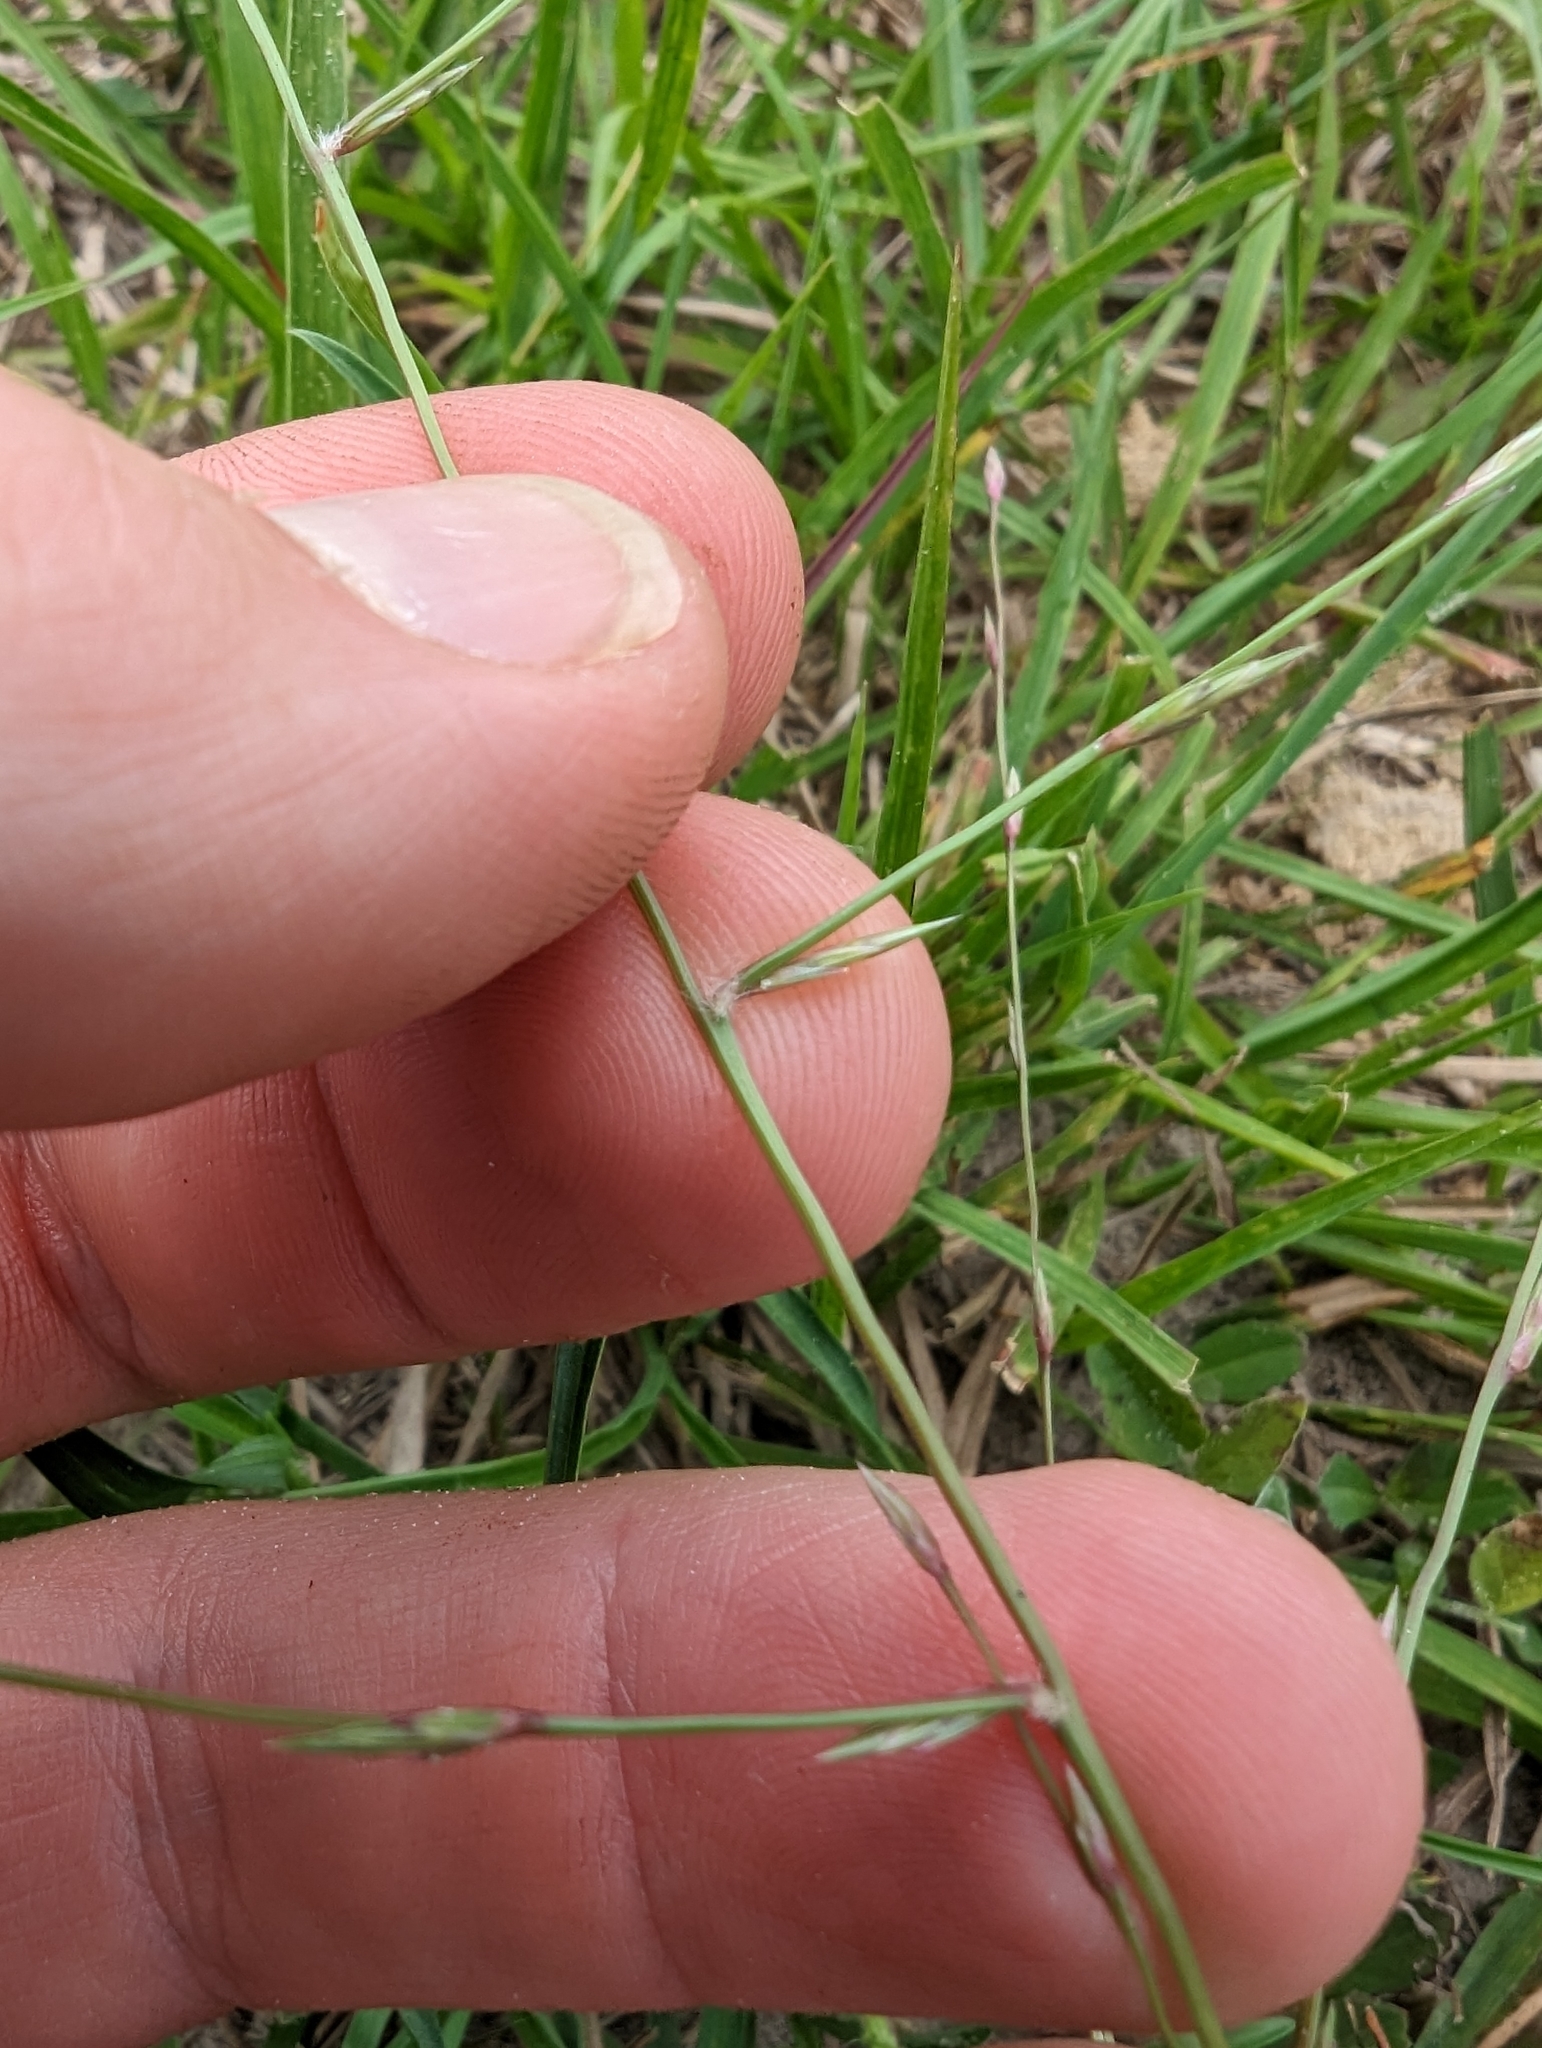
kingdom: Plantae
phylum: Tracheophyta
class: Liliopsida
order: Poales
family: Poaceae
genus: Eragrostis
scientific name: Eragrostis sessilispica
